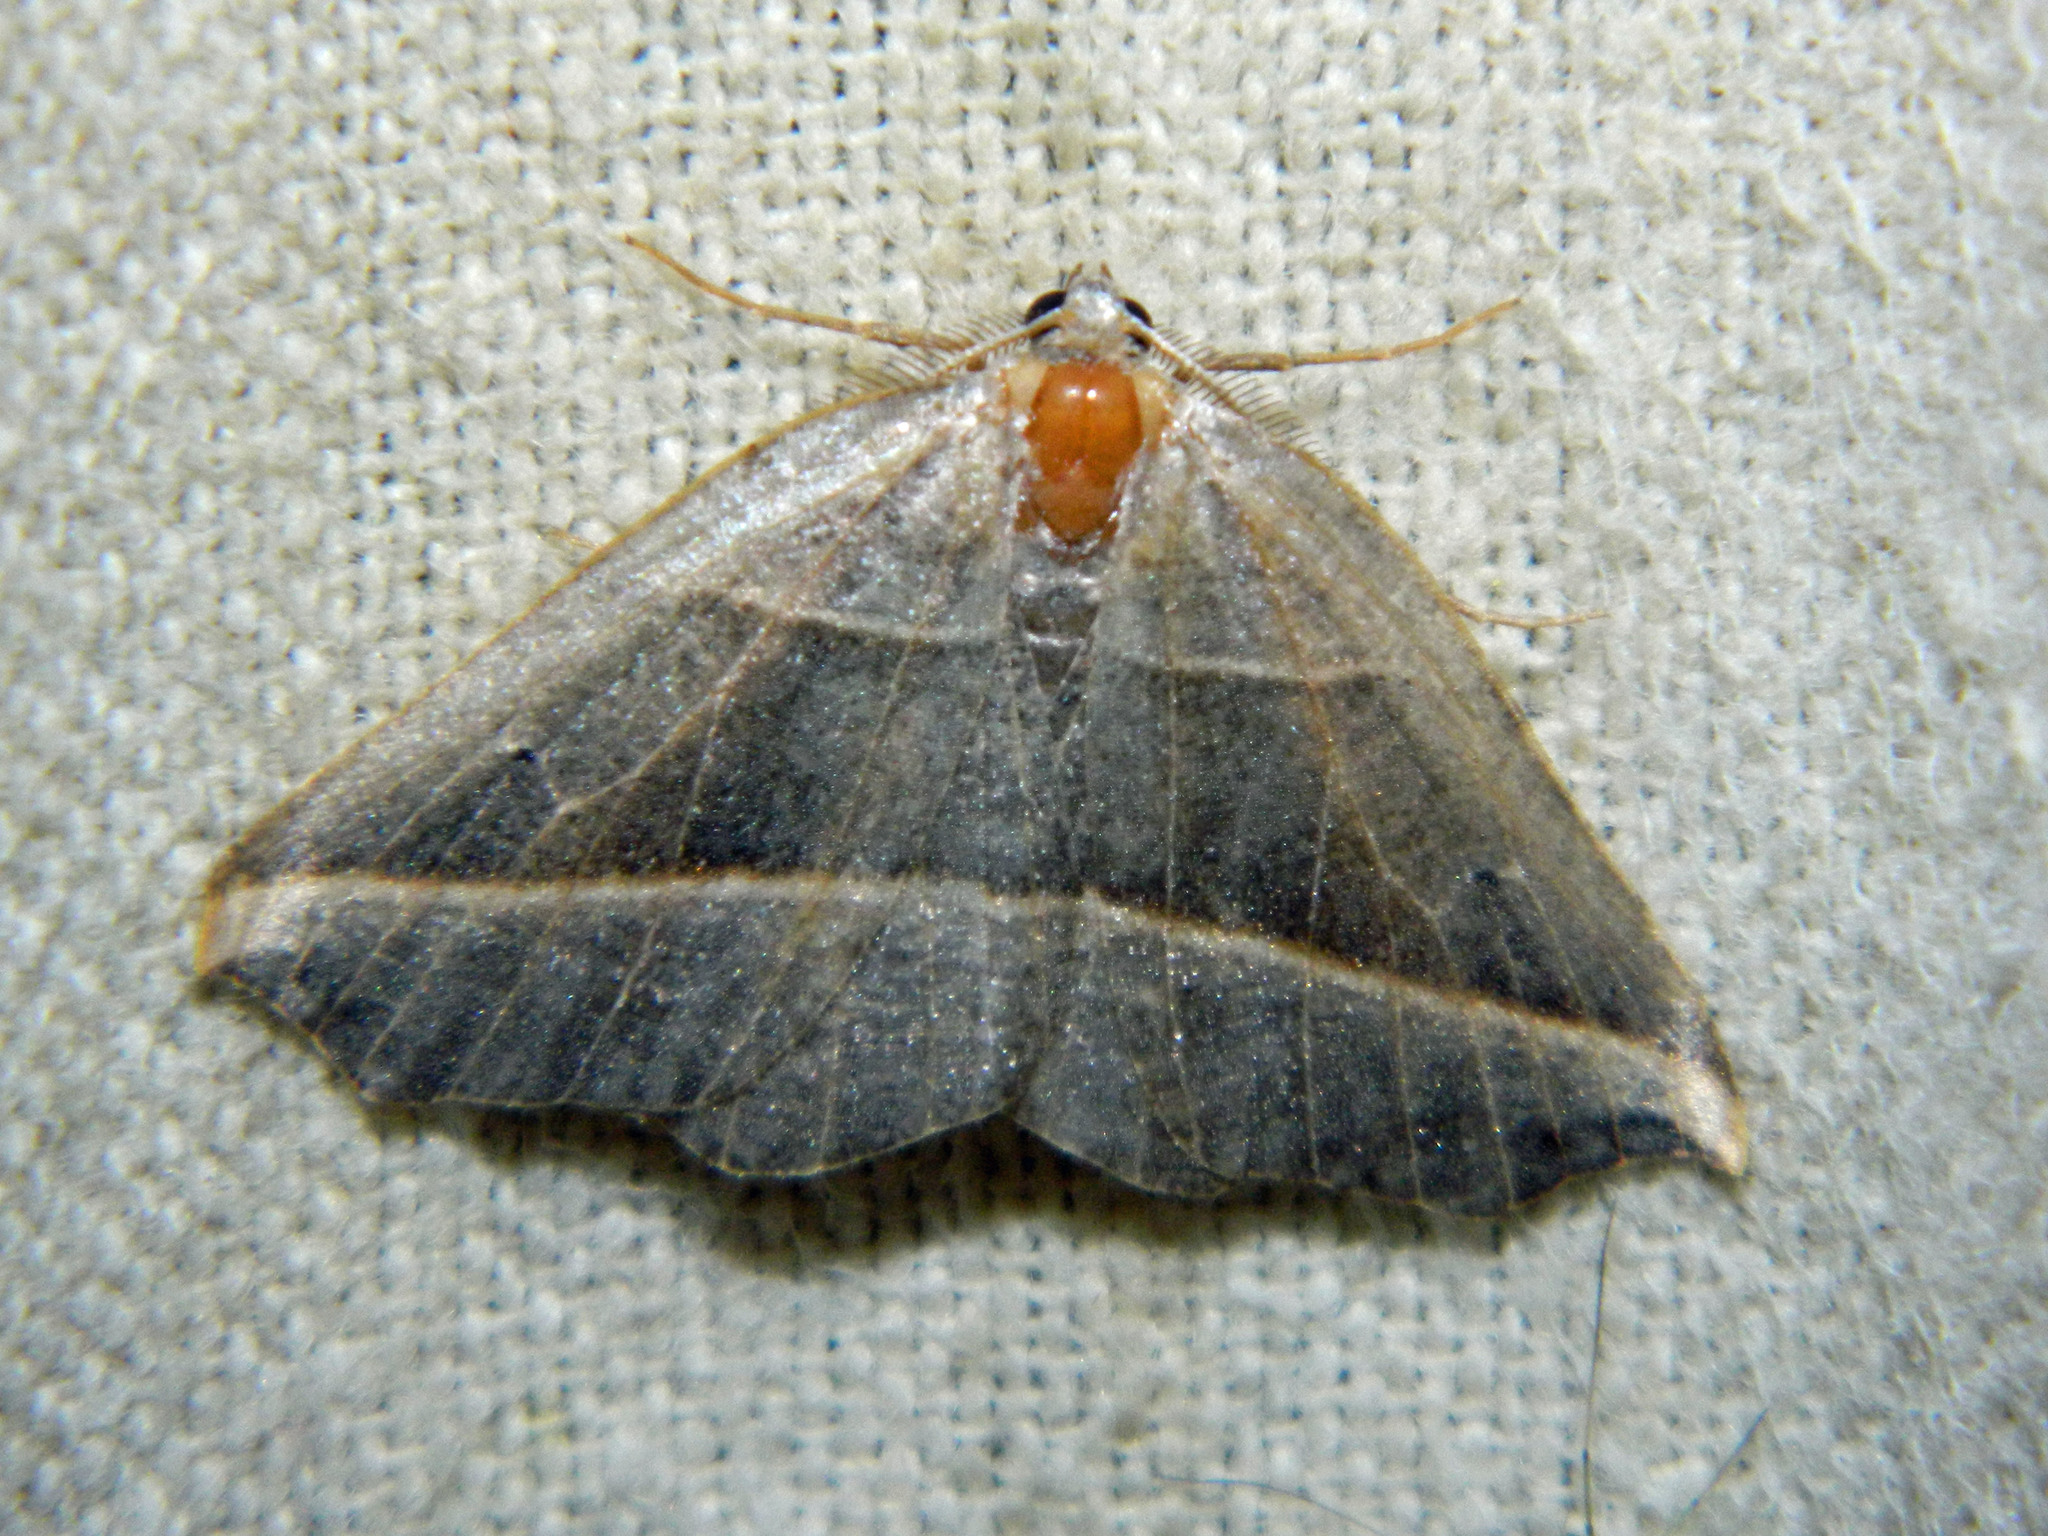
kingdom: Animalia
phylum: Arthropoda
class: Insecta
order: Lepidoptera
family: Geometridae
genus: Metanema
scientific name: Metanema determinata
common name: Dark metanema
